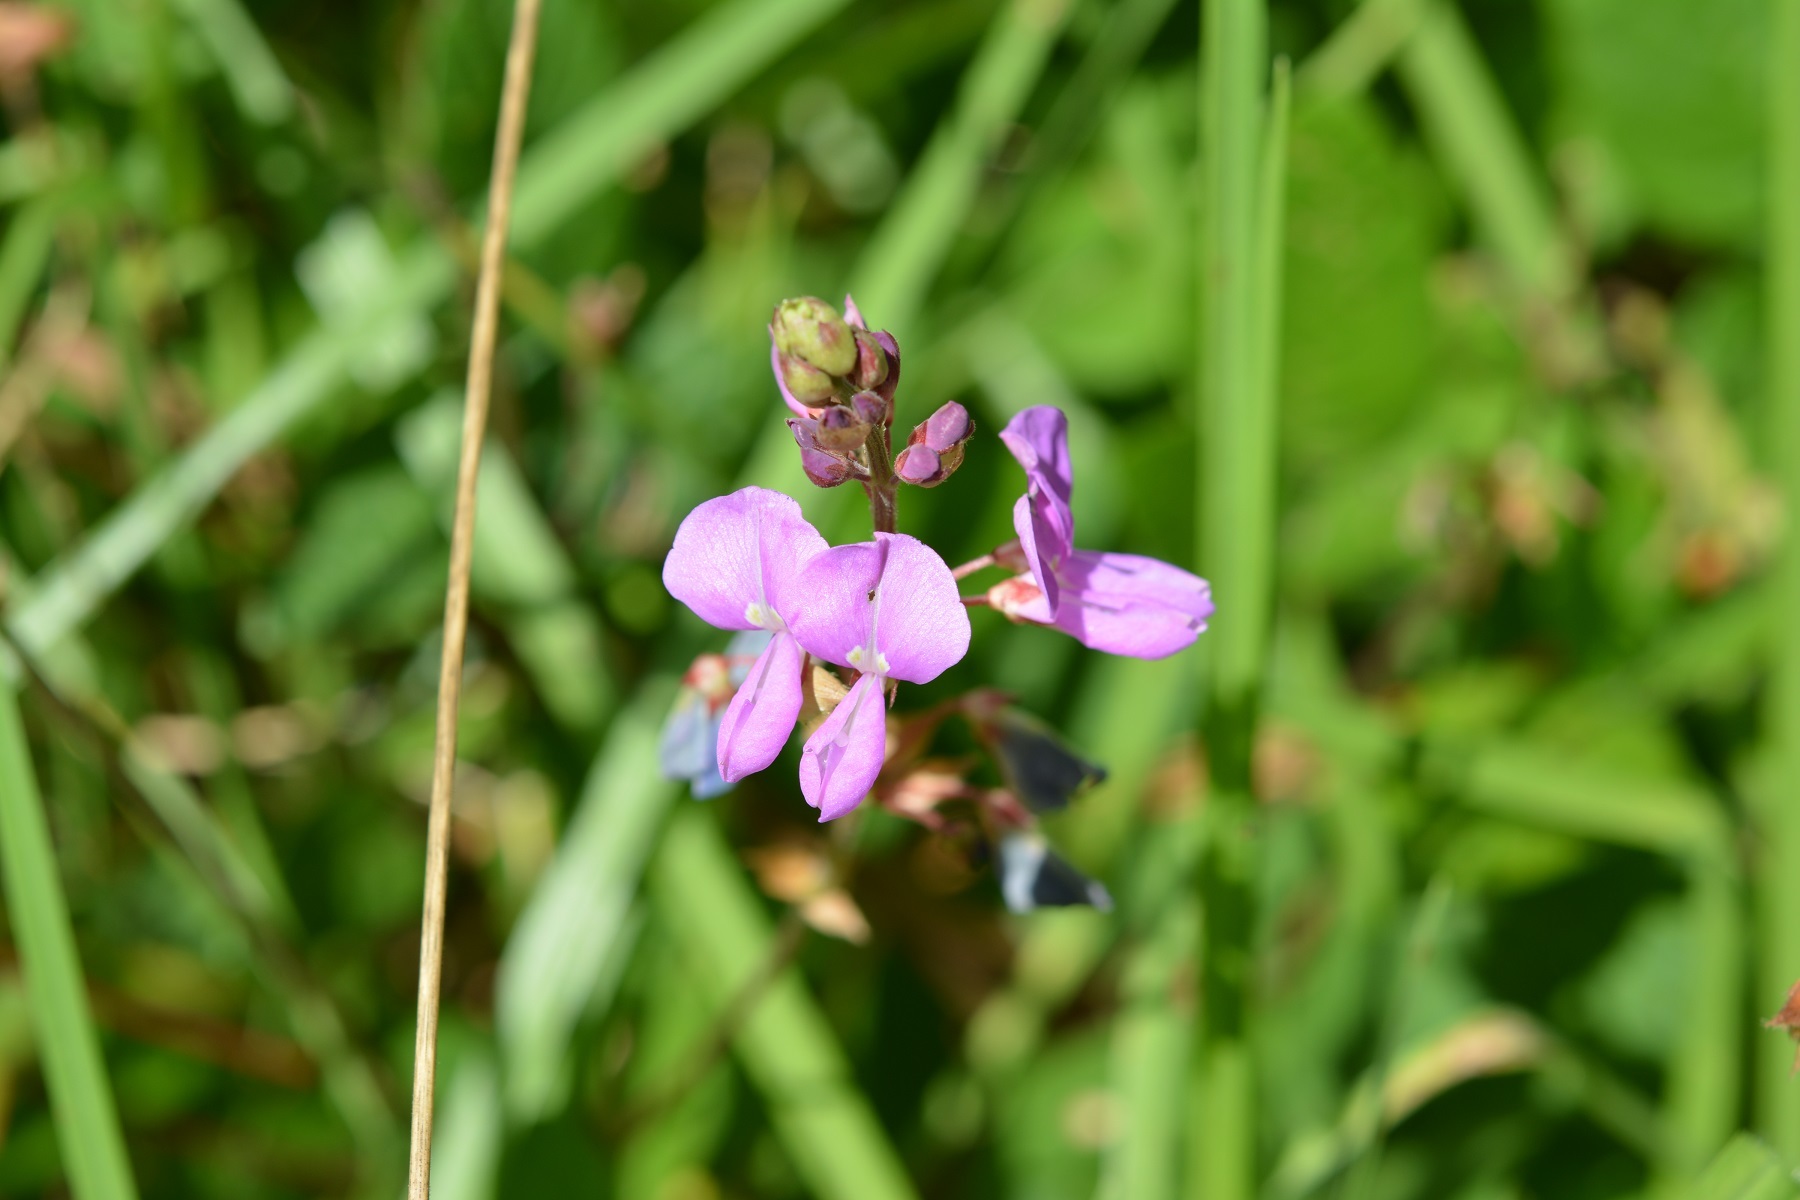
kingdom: Plantae
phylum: Tracheophyta
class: Magnoliopsida
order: Fabales
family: Fabaceae
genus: Desmodium
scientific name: Desmodium pringlei
